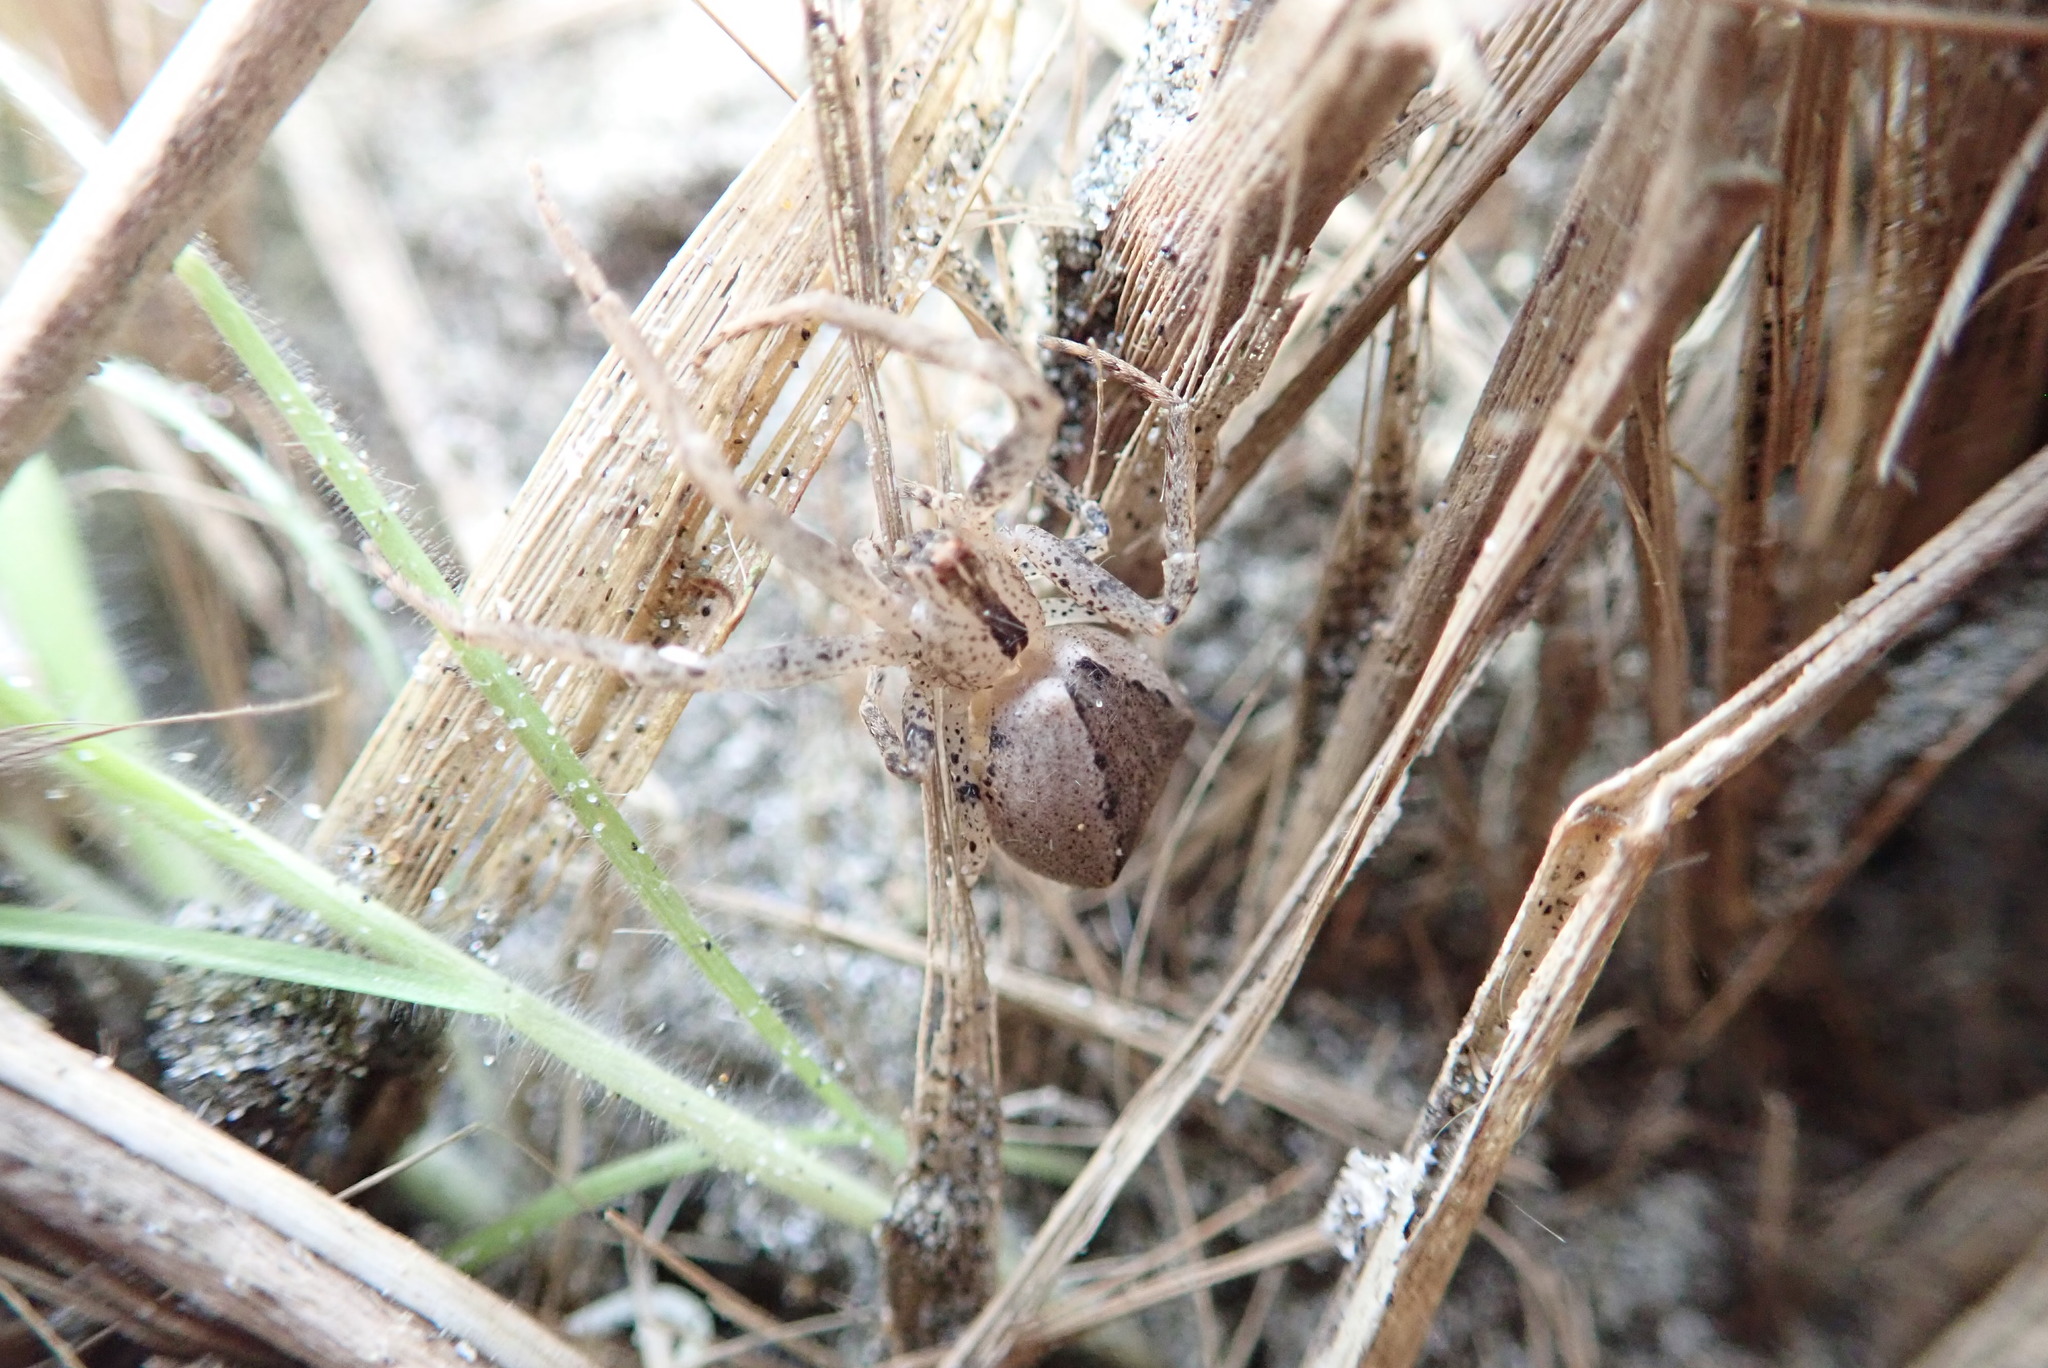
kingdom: Animalia
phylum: Arthropoda
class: Arachnida
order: Araneae
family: Thomisidae
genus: Sidymella
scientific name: Sidymella trapezia
